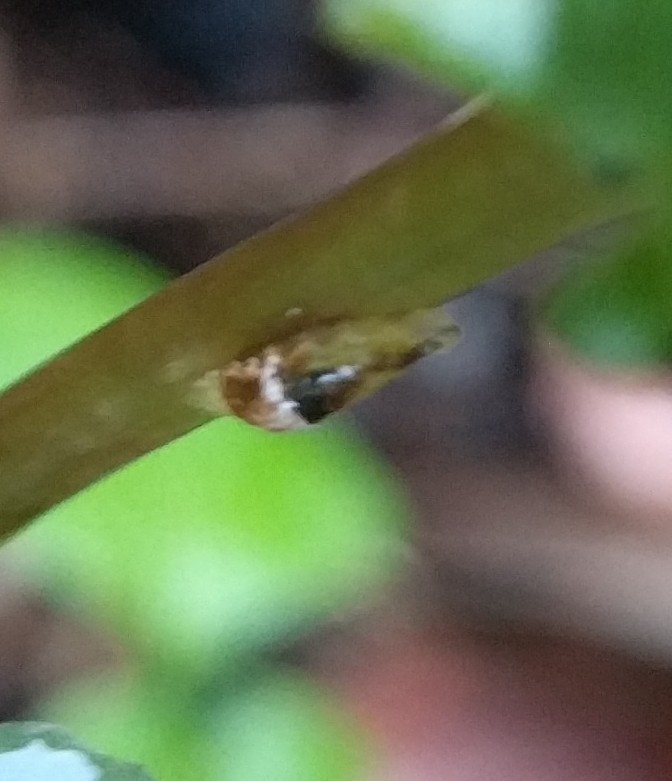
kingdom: Animalia
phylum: Arthropoda
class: Insecta
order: Diptera
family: Syrphidae
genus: Ocyptamus
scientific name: Ocyptamus fuscipennis
